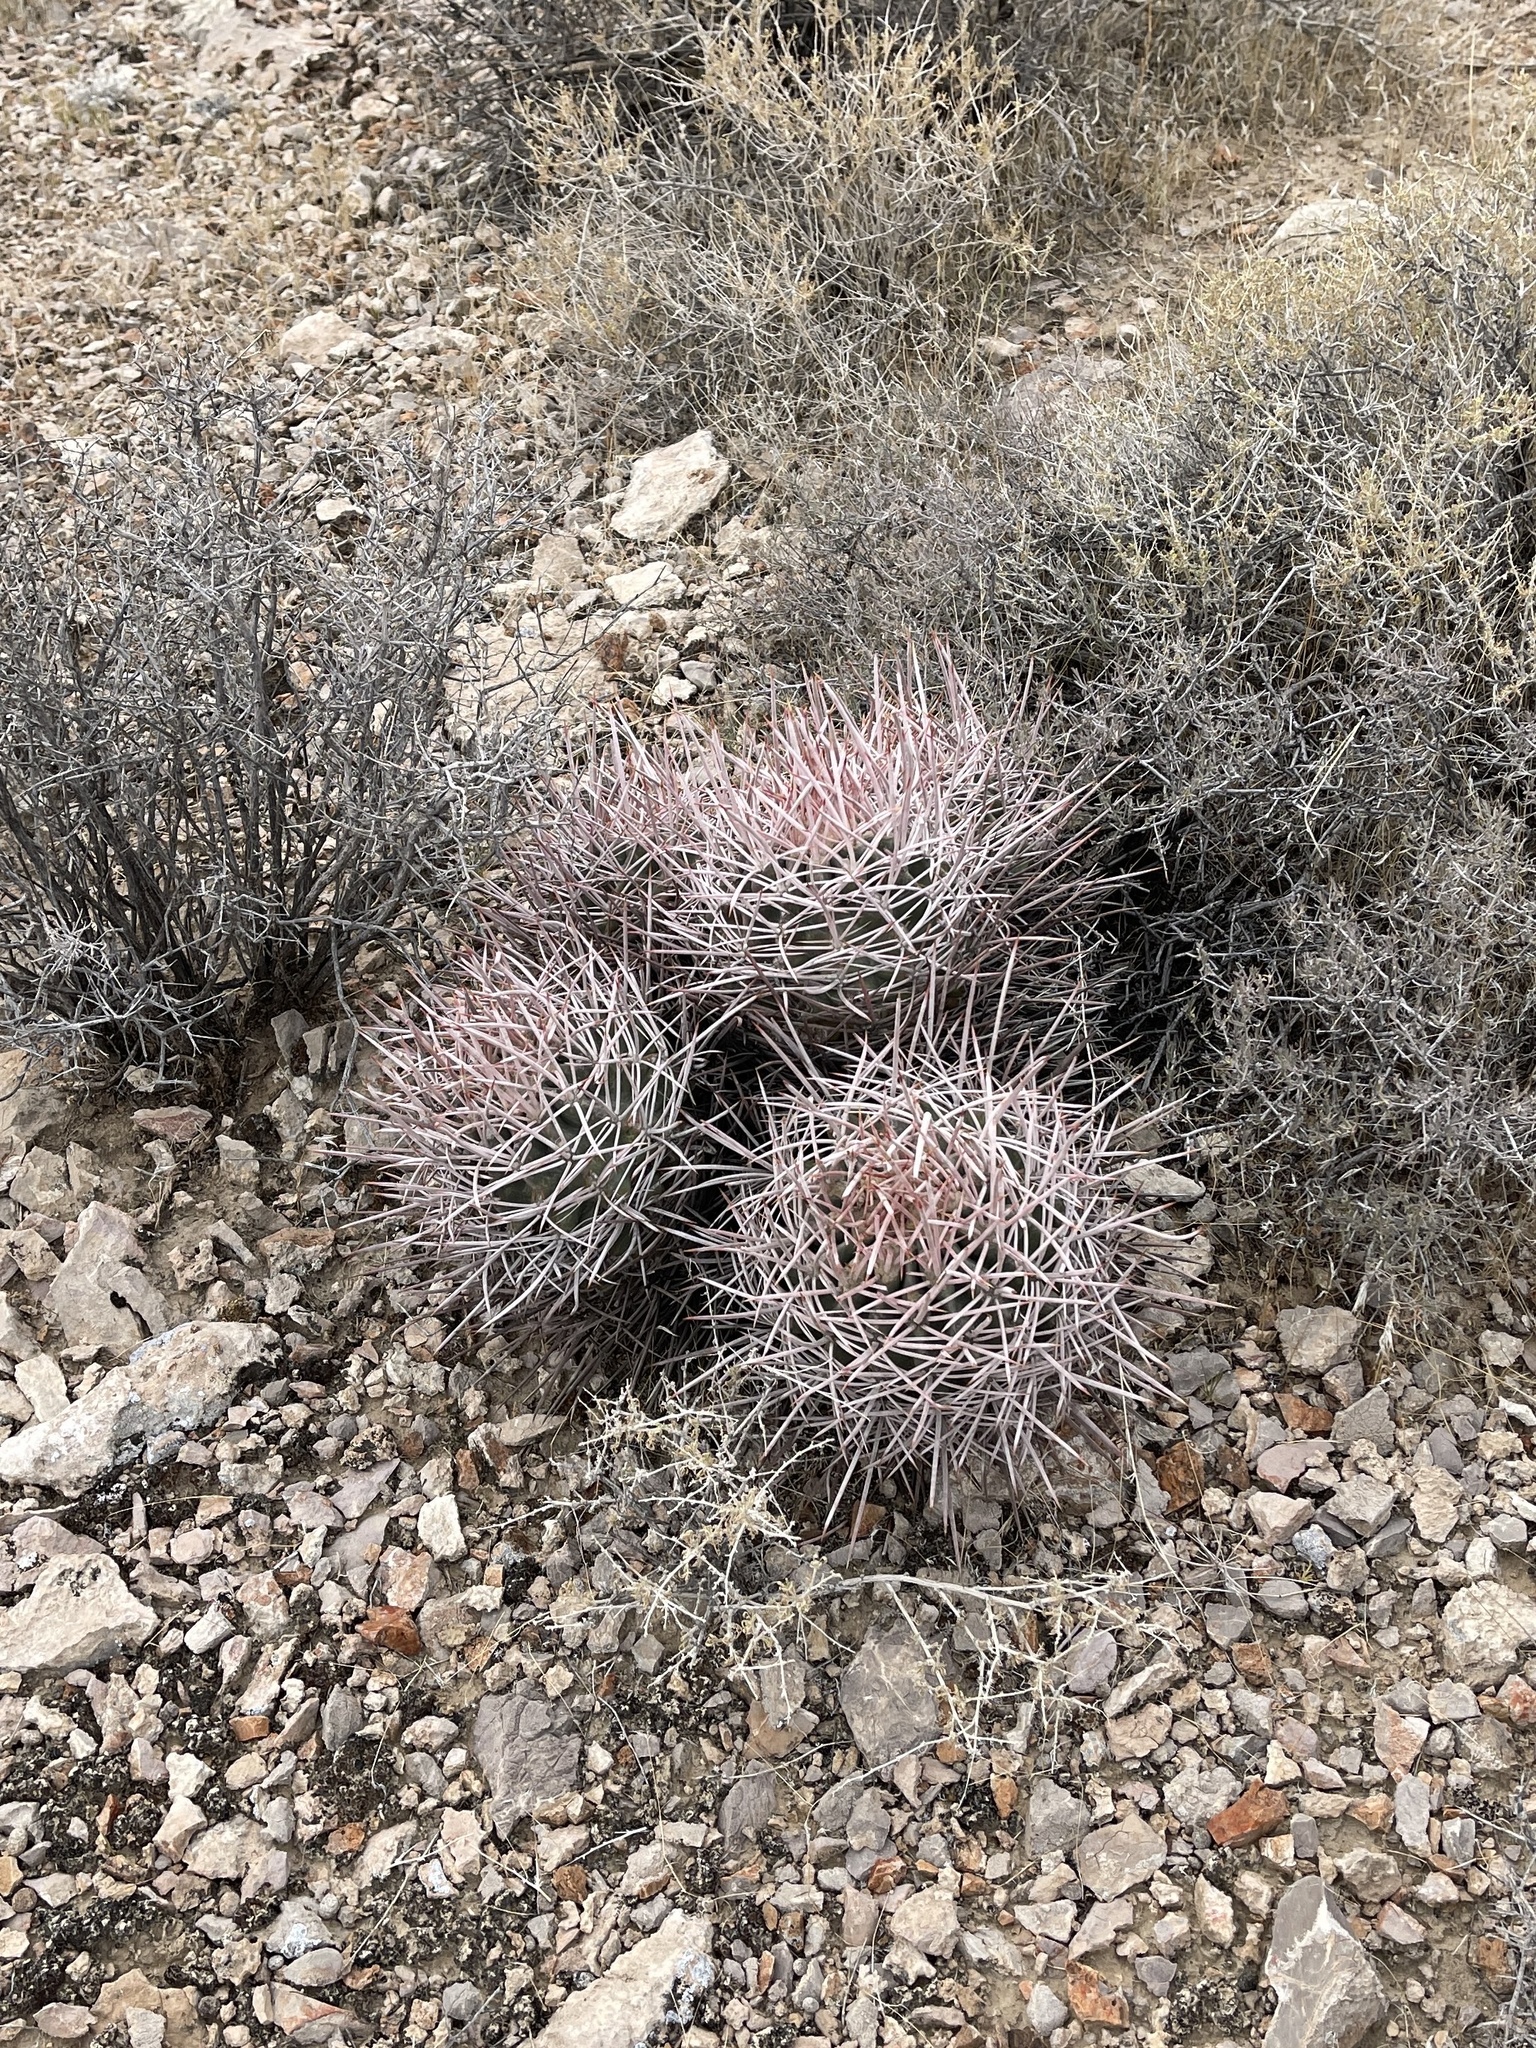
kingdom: Plantae
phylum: Tracheophyta
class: Magnoliopsida
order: Caryophyllales
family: Cactaceae
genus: Echinocactus
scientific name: Echinocactus polycephalus
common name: Cottontop cactus
